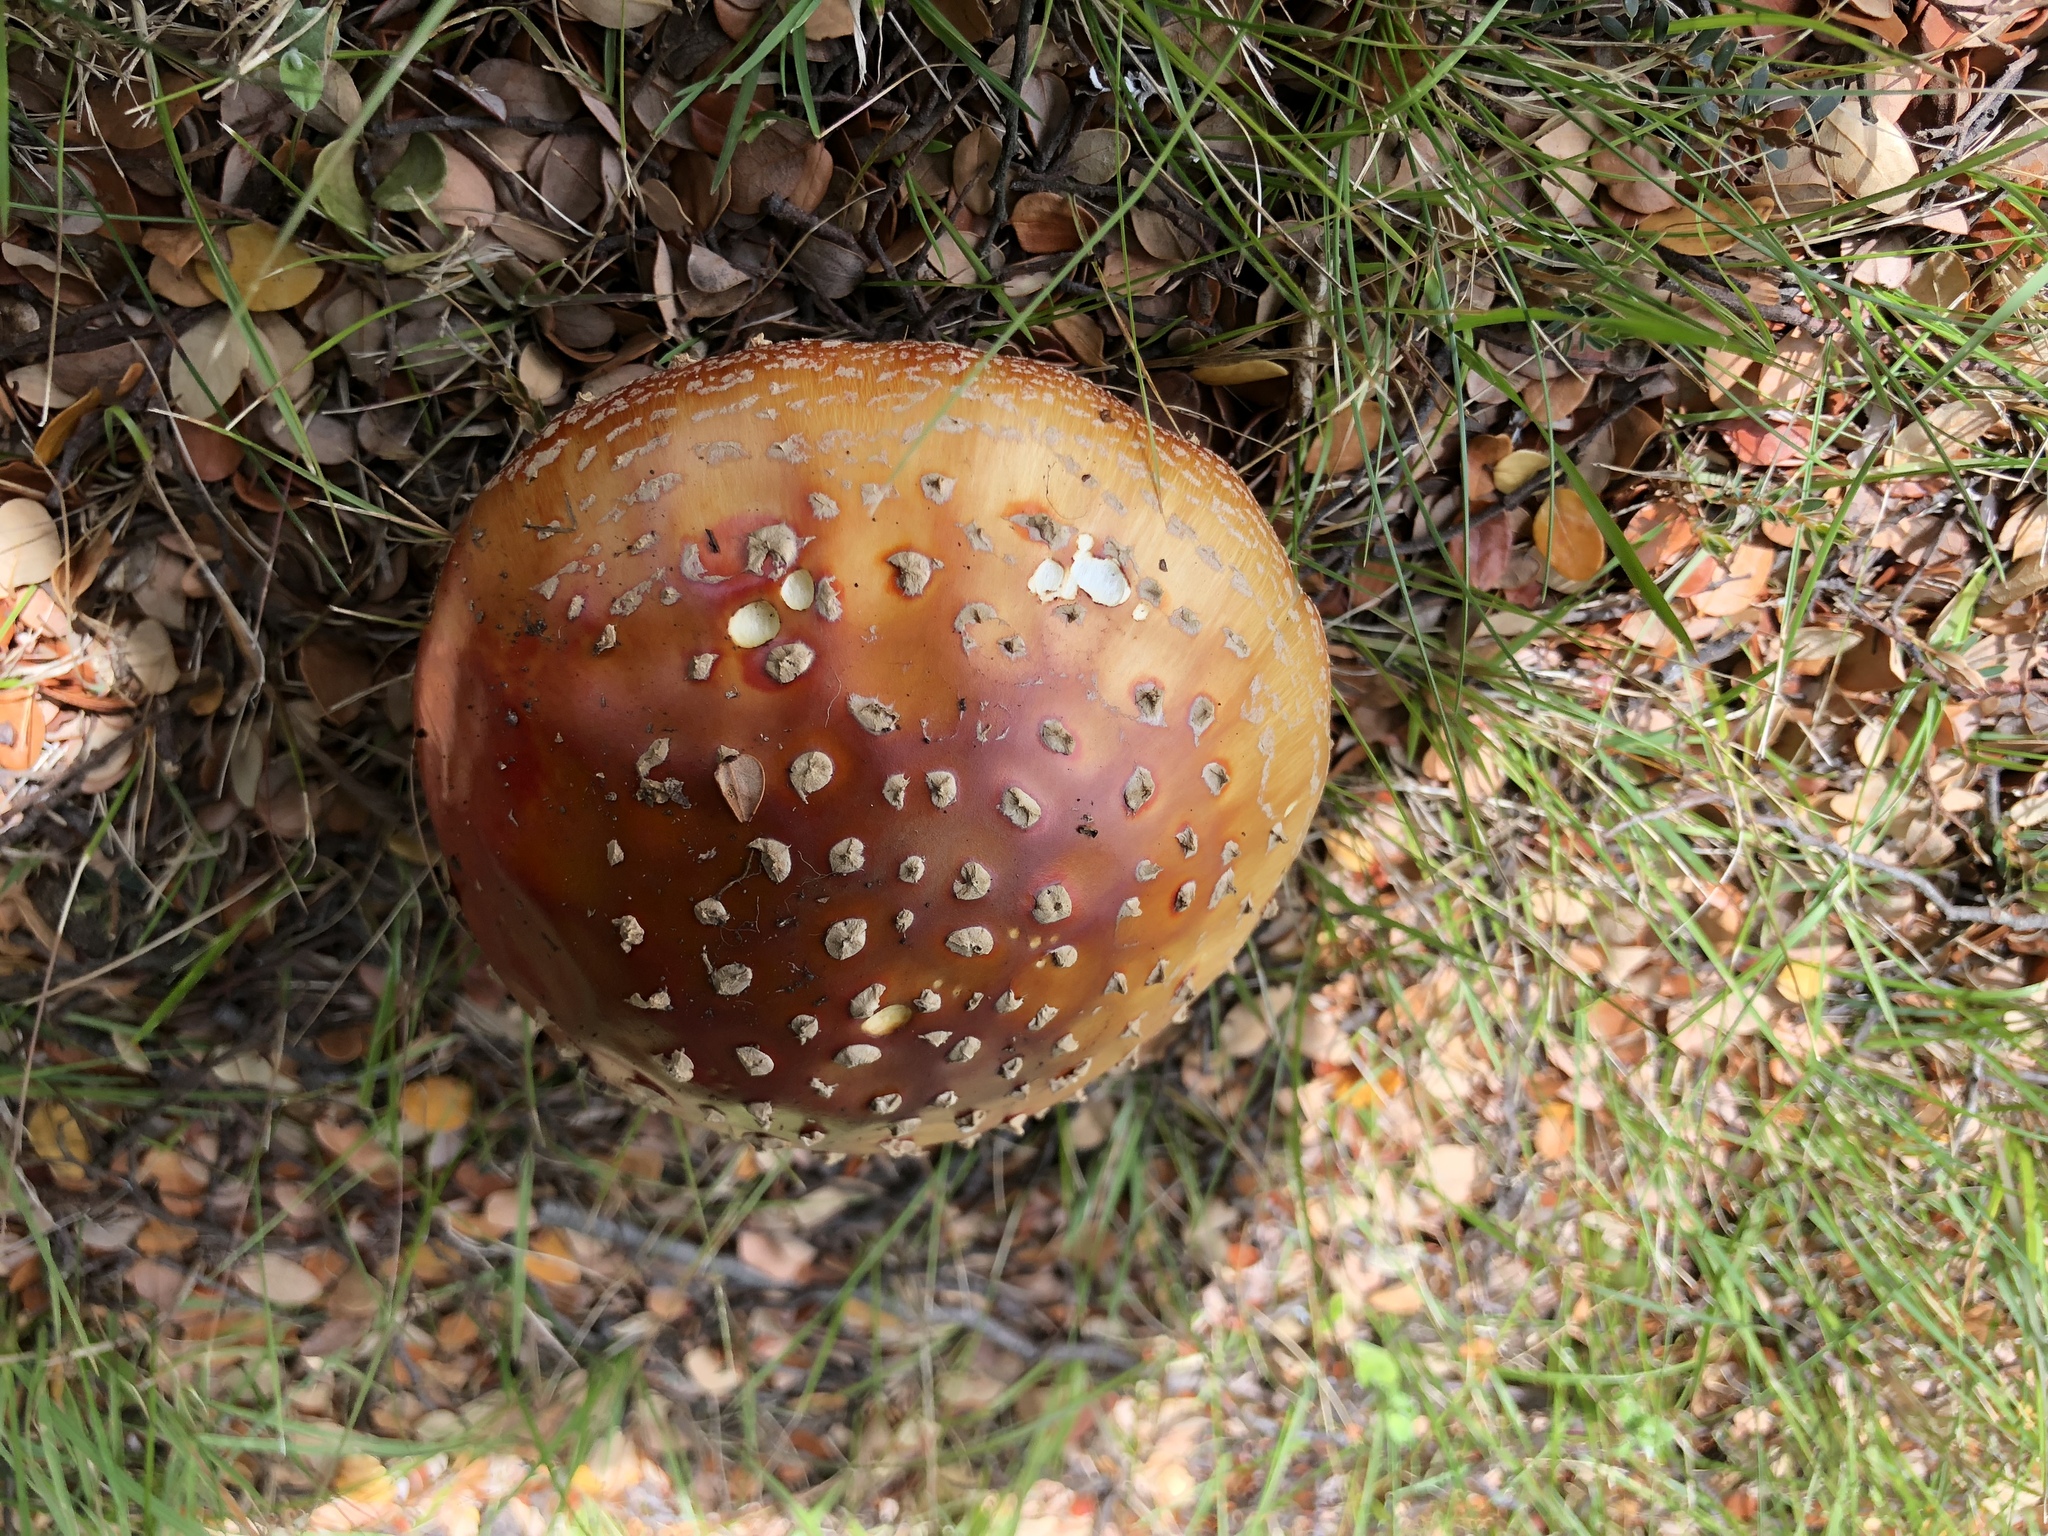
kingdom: Fungi
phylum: Basidiomycota
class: Agaricomycetes
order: Agaricales
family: Amanitaceae
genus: Amanita
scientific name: Amanita muscaria
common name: Fly agaric
